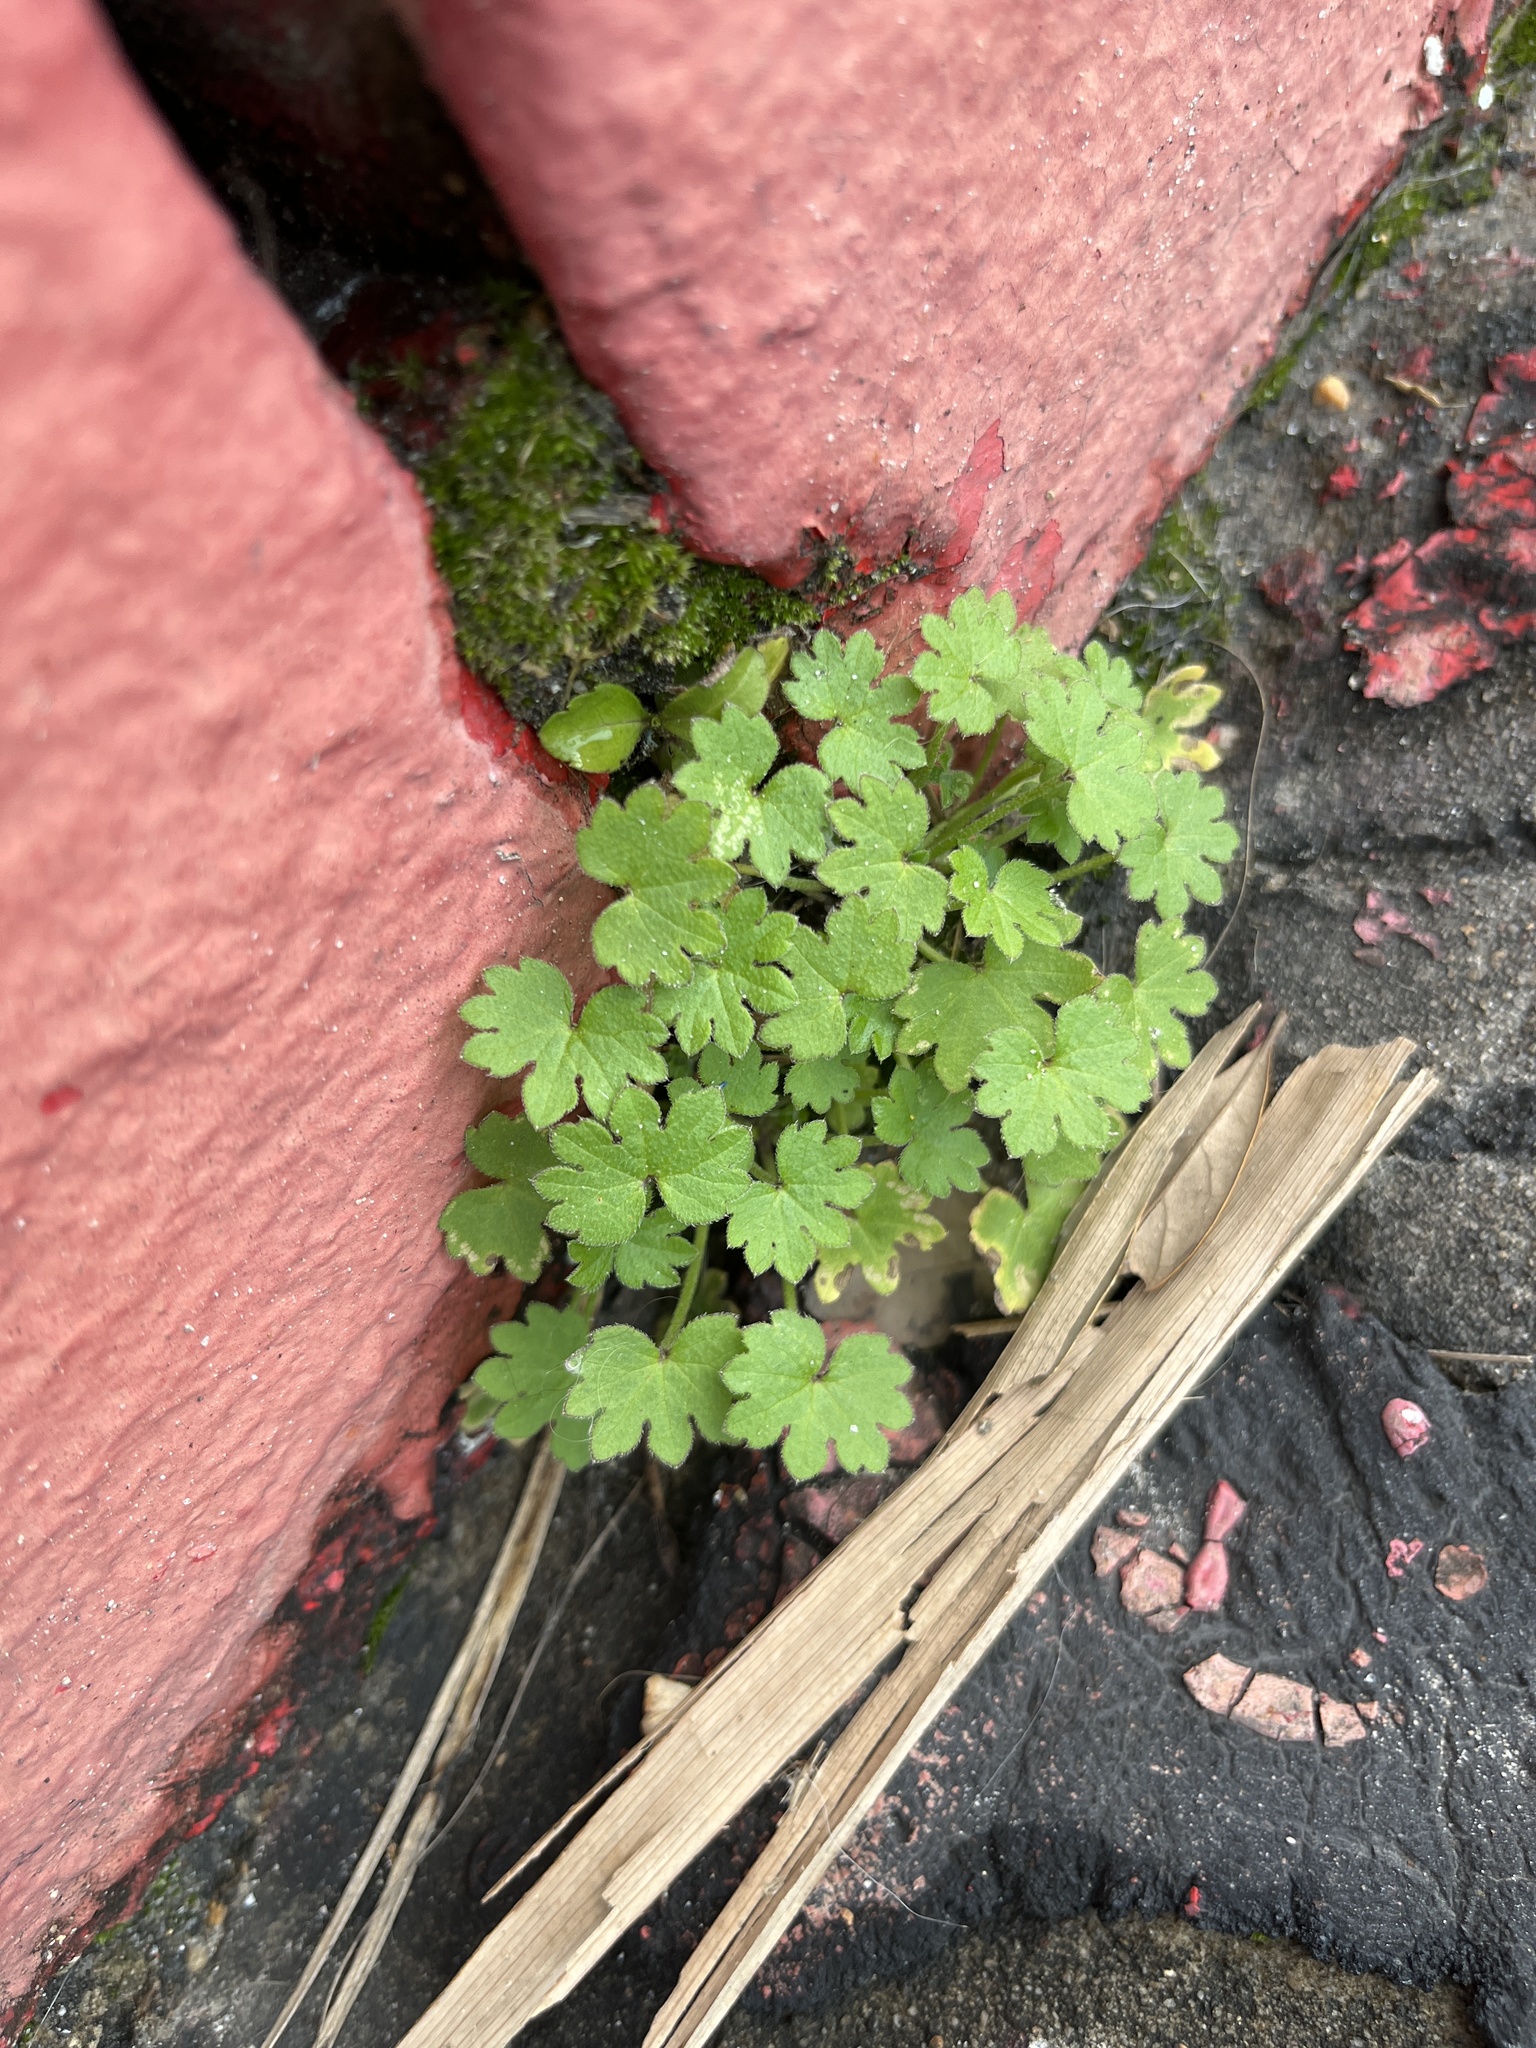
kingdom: Plantae
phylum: Tracheophyta
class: Magnoliopsida
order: Apiales
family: Apiaceae
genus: Bowlesia
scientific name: Bowlesia incana
